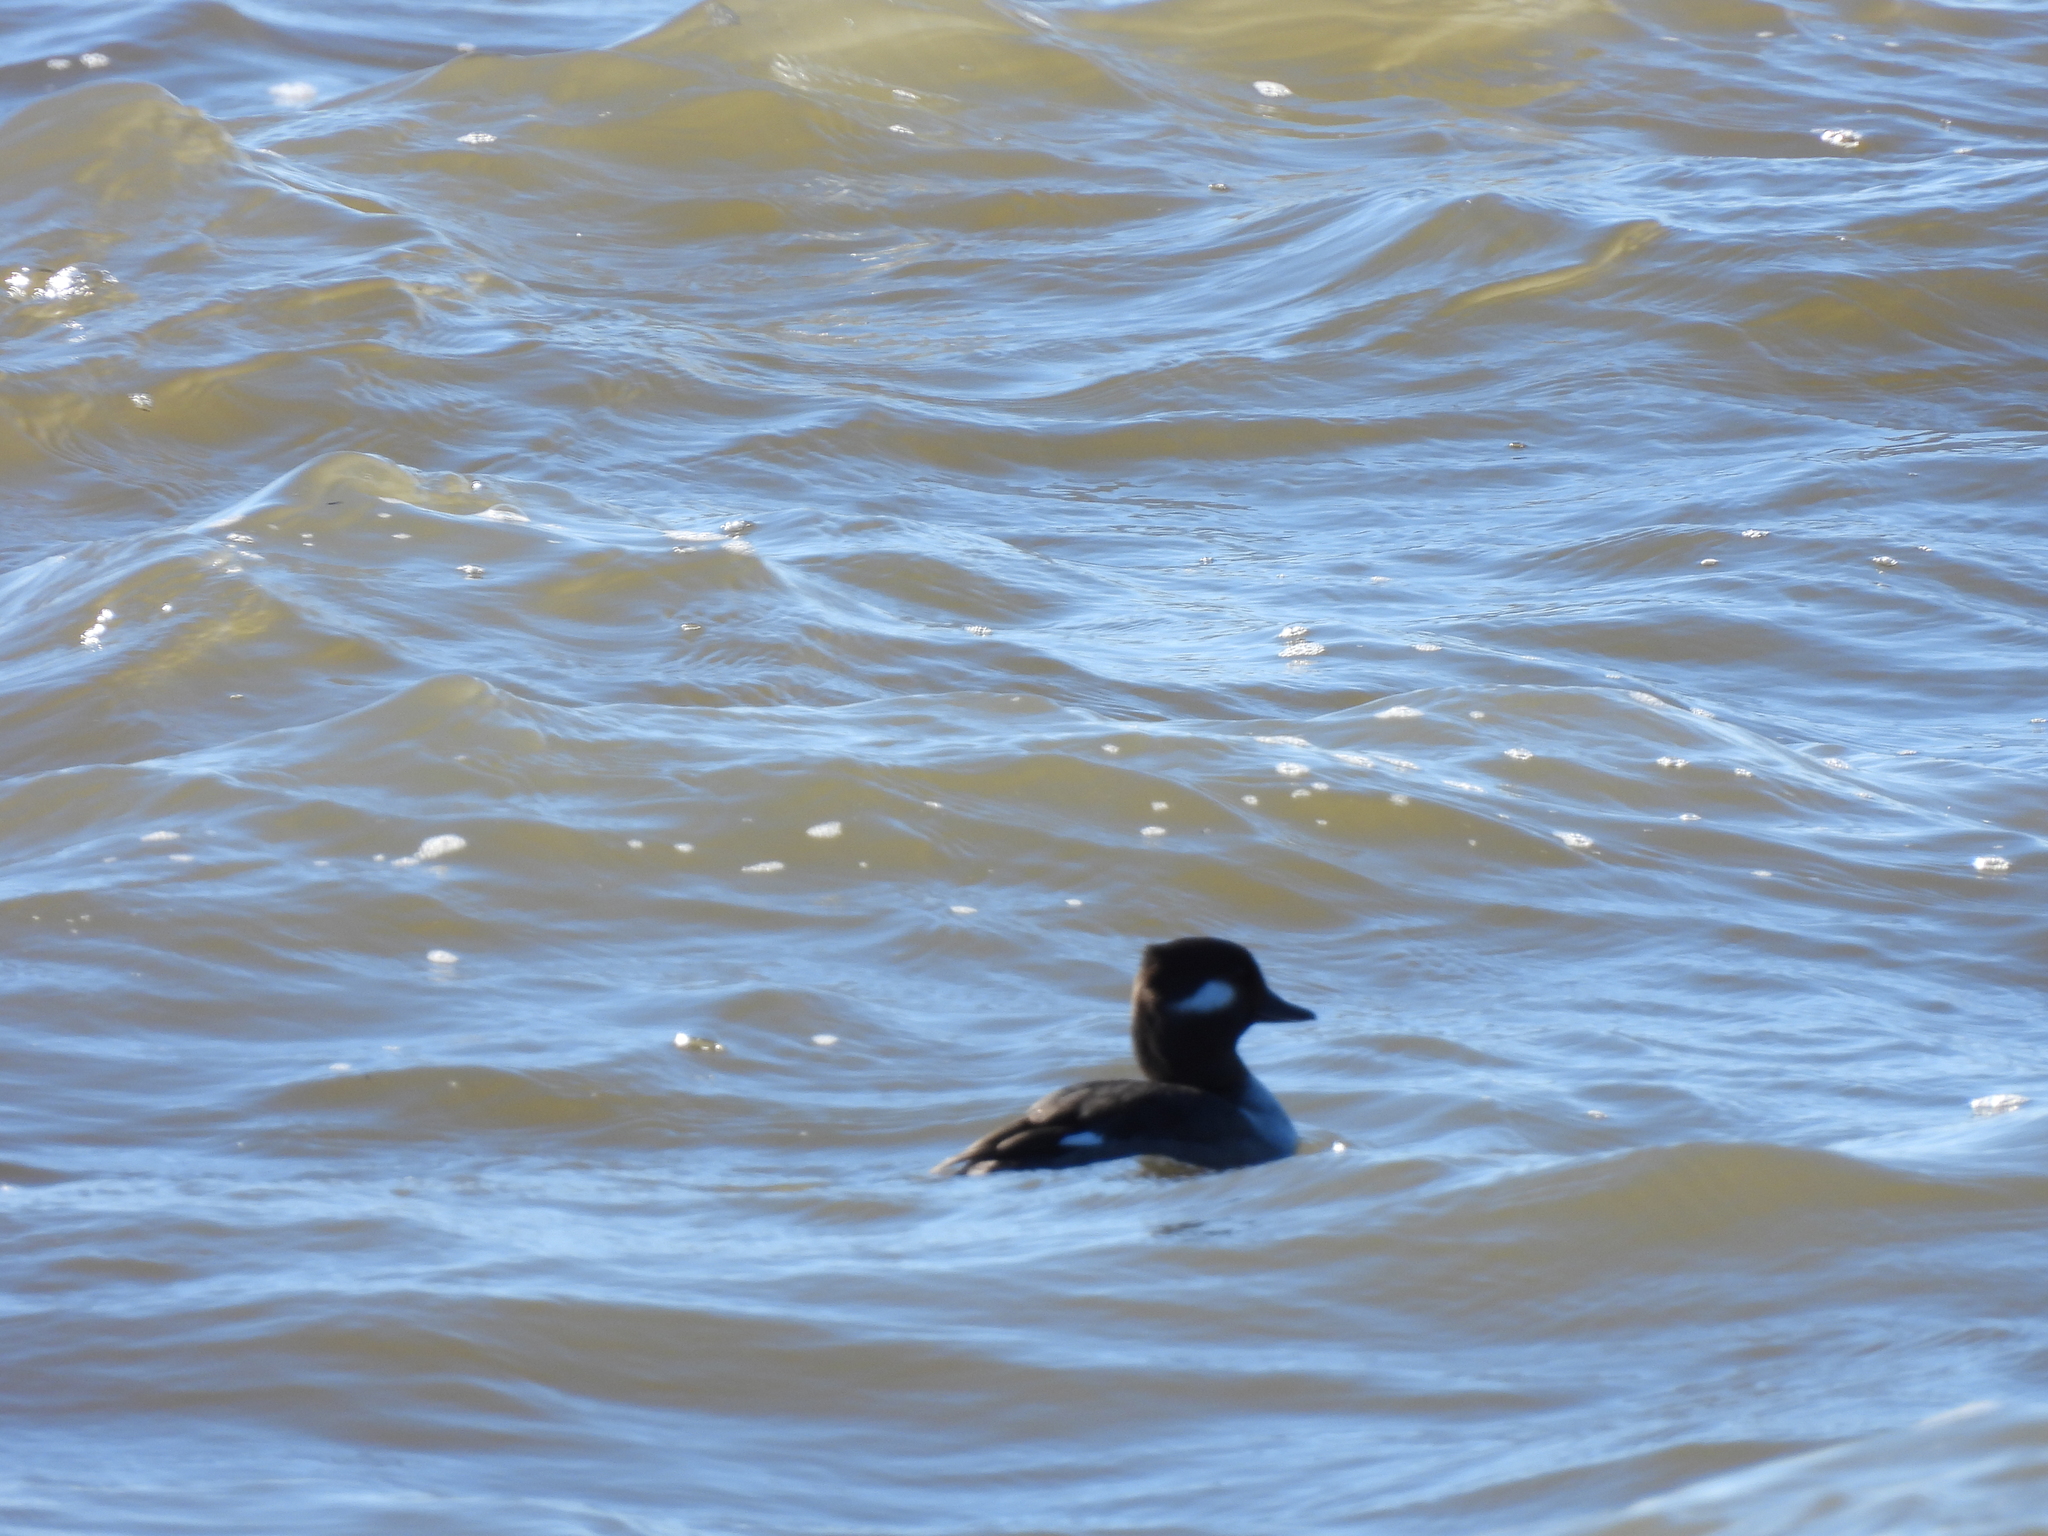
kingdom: Animalia
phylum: Chordata
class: Aves
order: Anseriformes
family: Anatidae
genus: Bucephala
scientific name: Bucephala albeola
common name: Bufflehead
